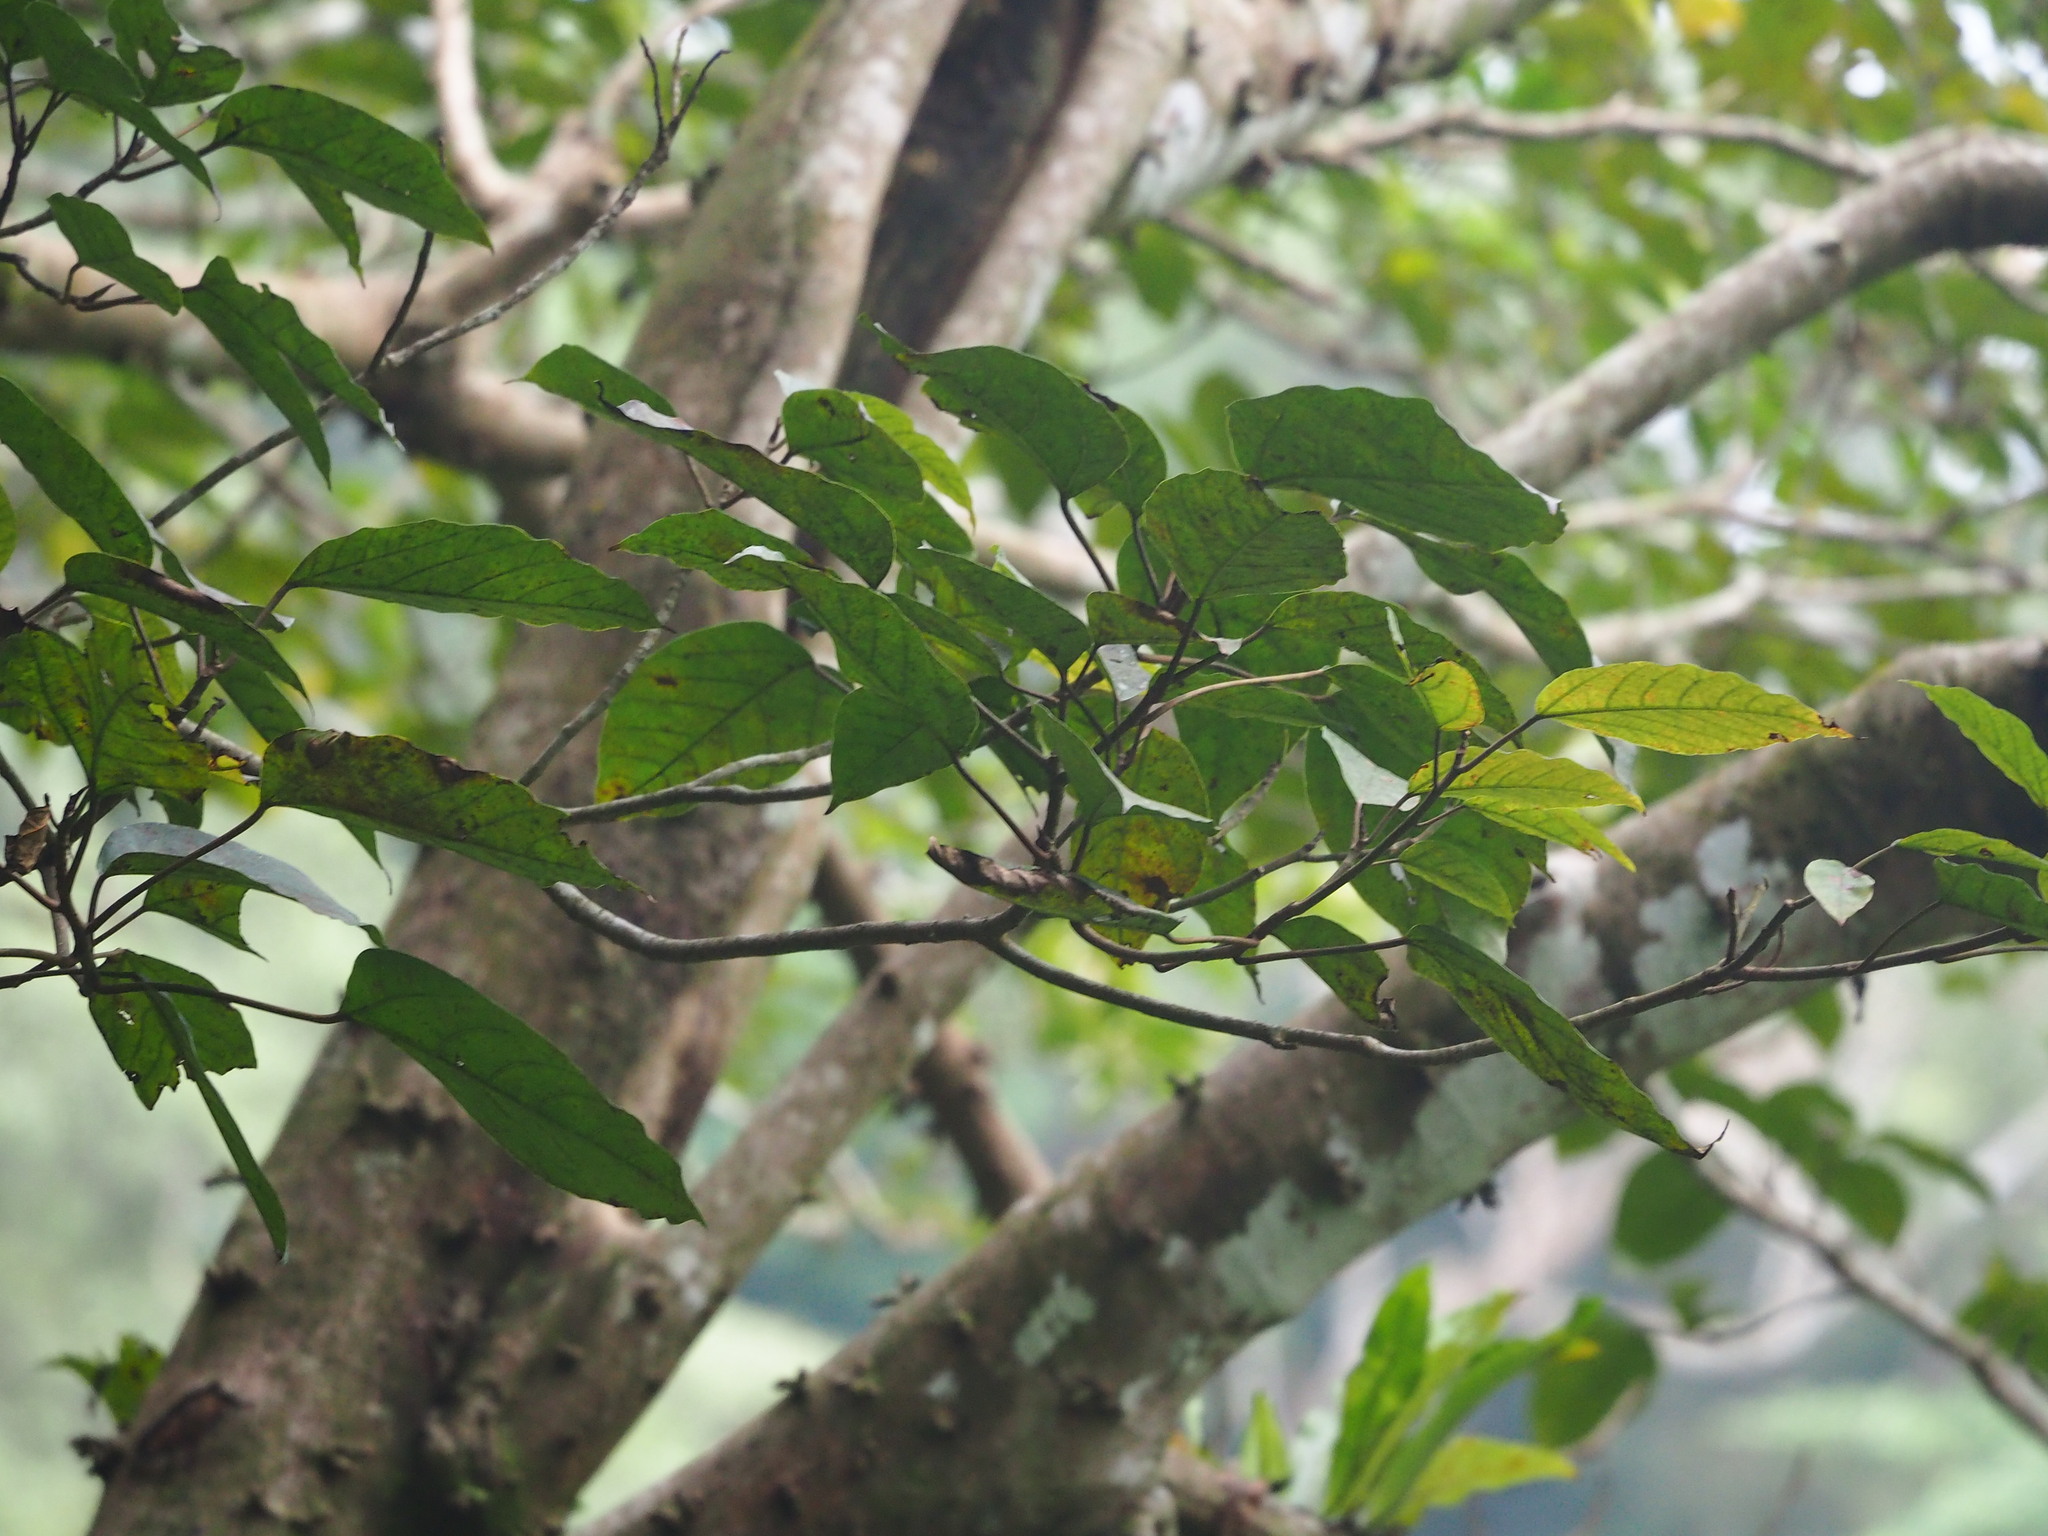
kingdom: Plantae
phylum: Tracheophyta
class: Magnoliopsida
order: Rosales
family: Moraceae
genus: Ficus
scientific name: Ficus variegata
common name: Variegated fig
